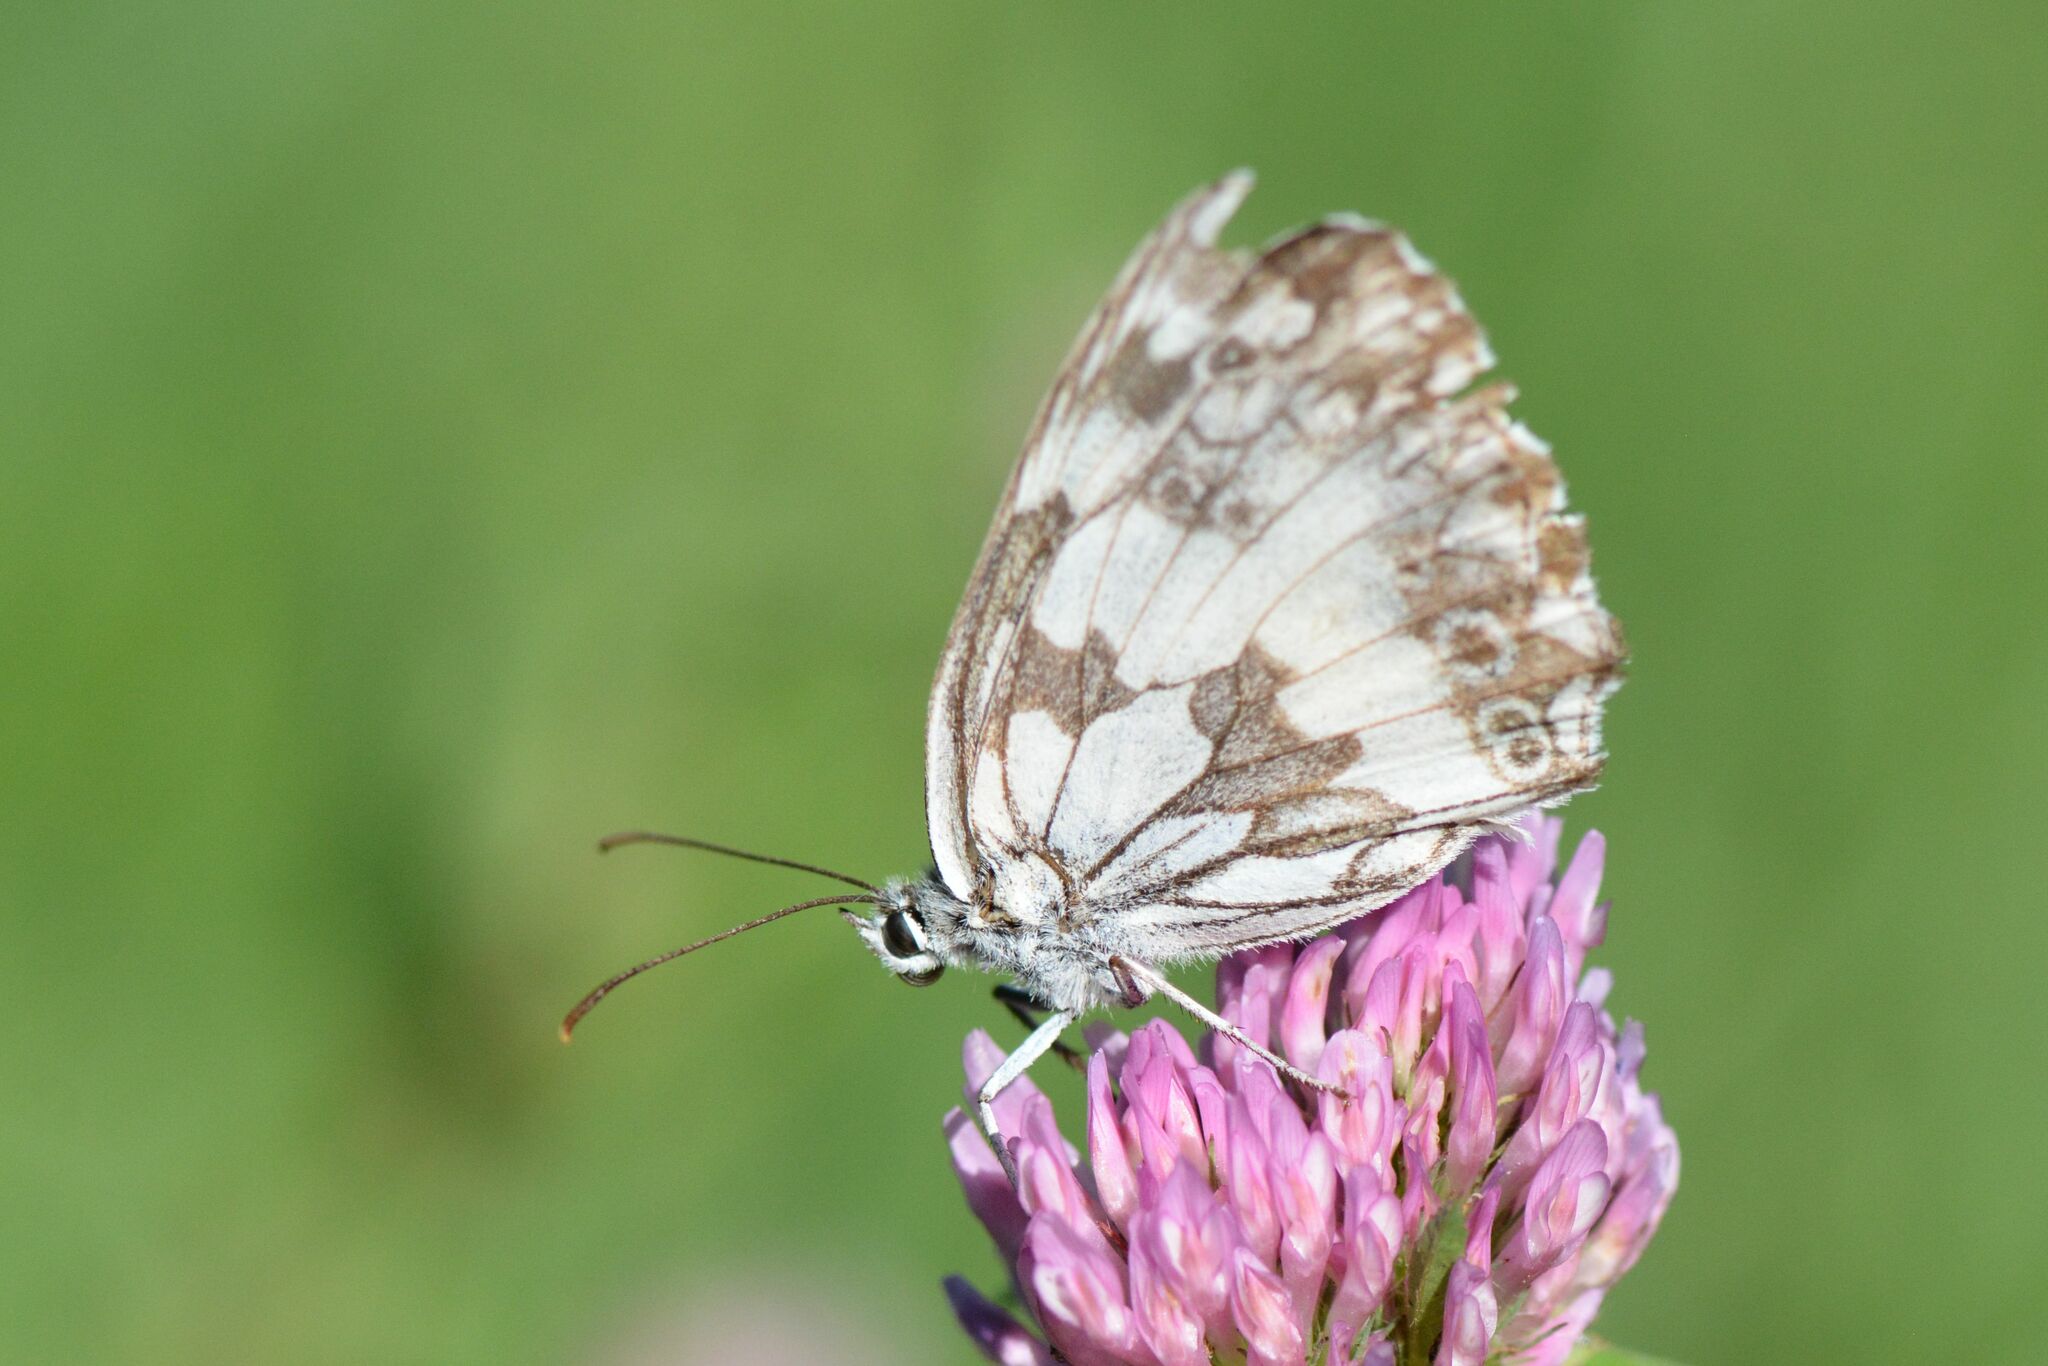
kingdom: Animalia
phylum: Arthropoda
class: Insecta
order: Lepidoptera
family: Nymphalidae
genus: Melanargia
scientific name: Melanargia galathea
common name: Marbled white
